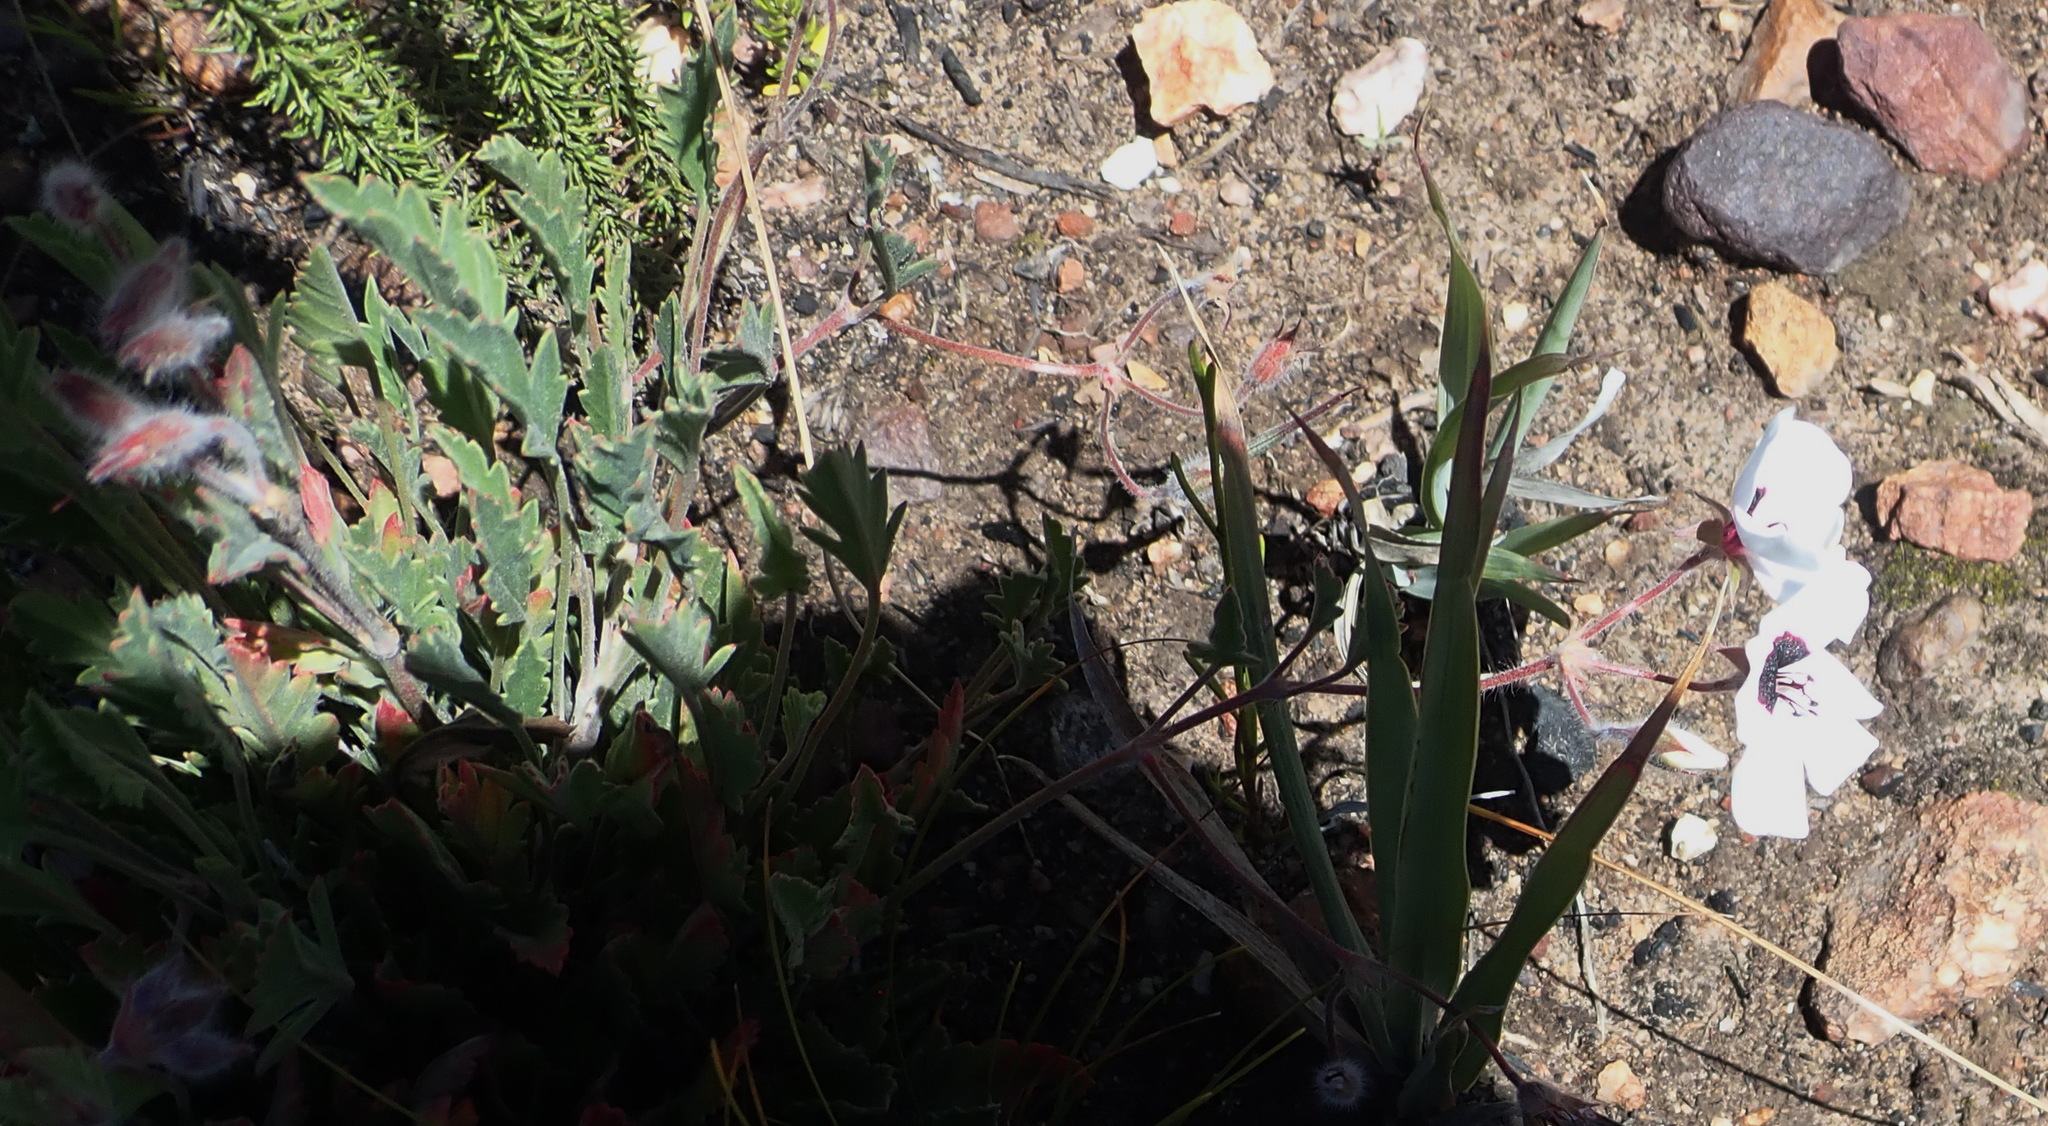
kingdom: Plantae
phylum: Tracheophyta
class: Magnoliopsida
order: Geraniales
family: Geraniaceae
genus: Pelargonium
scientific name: Pelargonium tricolor
